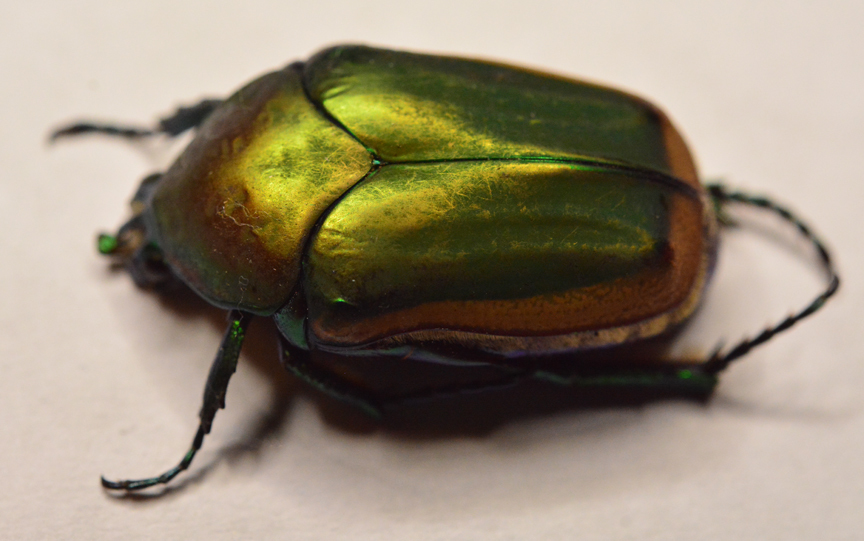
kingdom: Animalia
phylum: Arthropoda
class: Insecta
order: Coleoptera
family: Scarabaeidae
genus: Cotinis
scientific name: Cotinis mutabilis
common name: Figeater beetle
